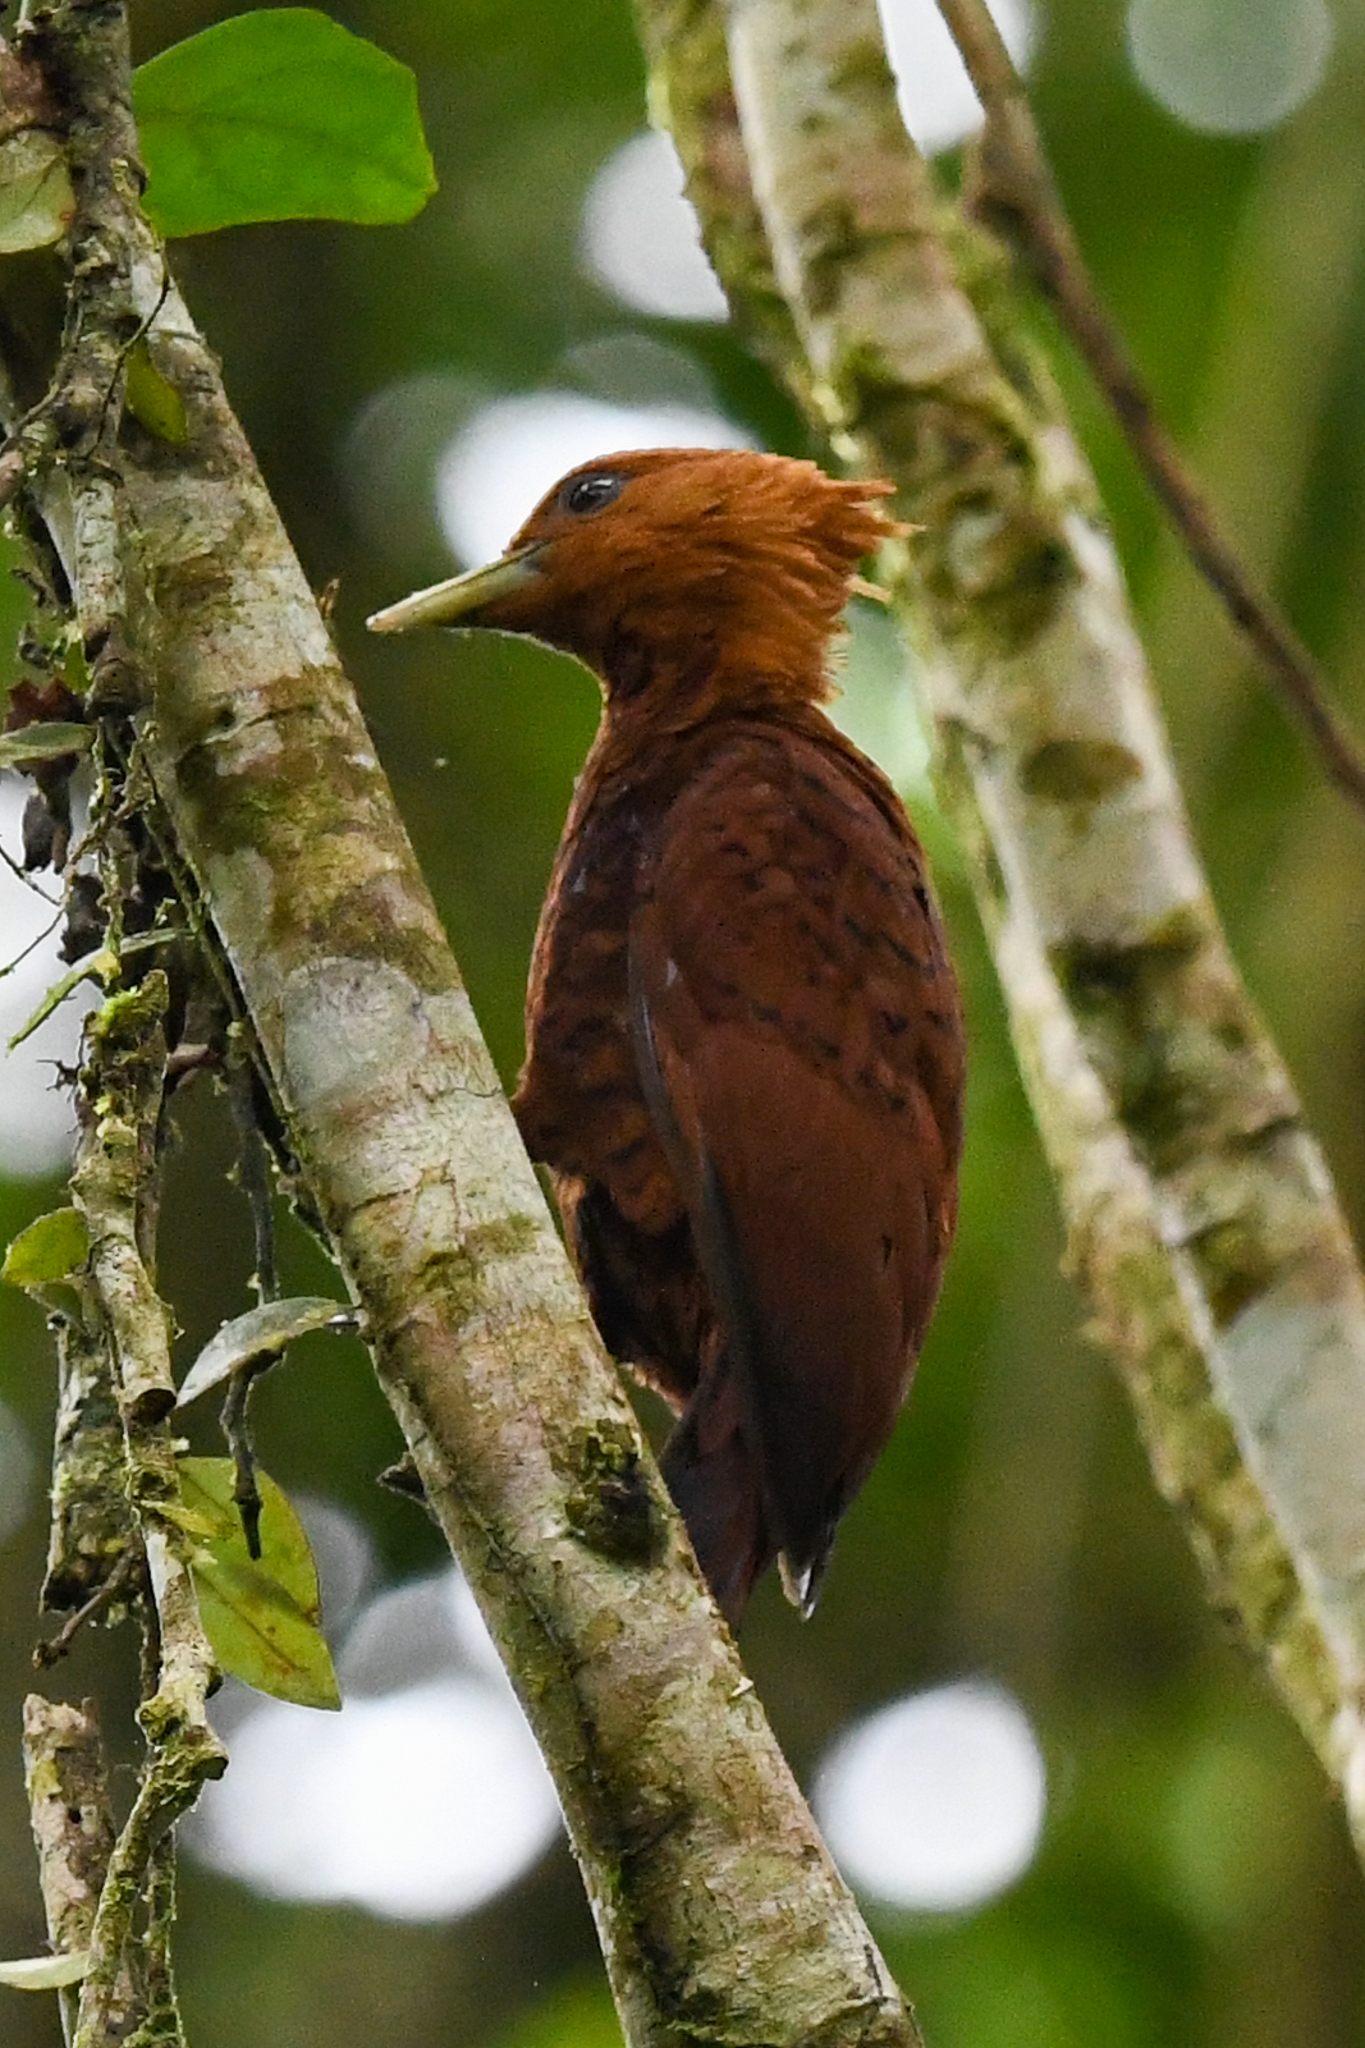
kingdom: Animalia
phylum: Chordata
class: Aves
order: Piciformes
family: Picidae
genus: Celeus
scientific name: Celeus castaneus
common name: Chestnut-colored woodpecker
